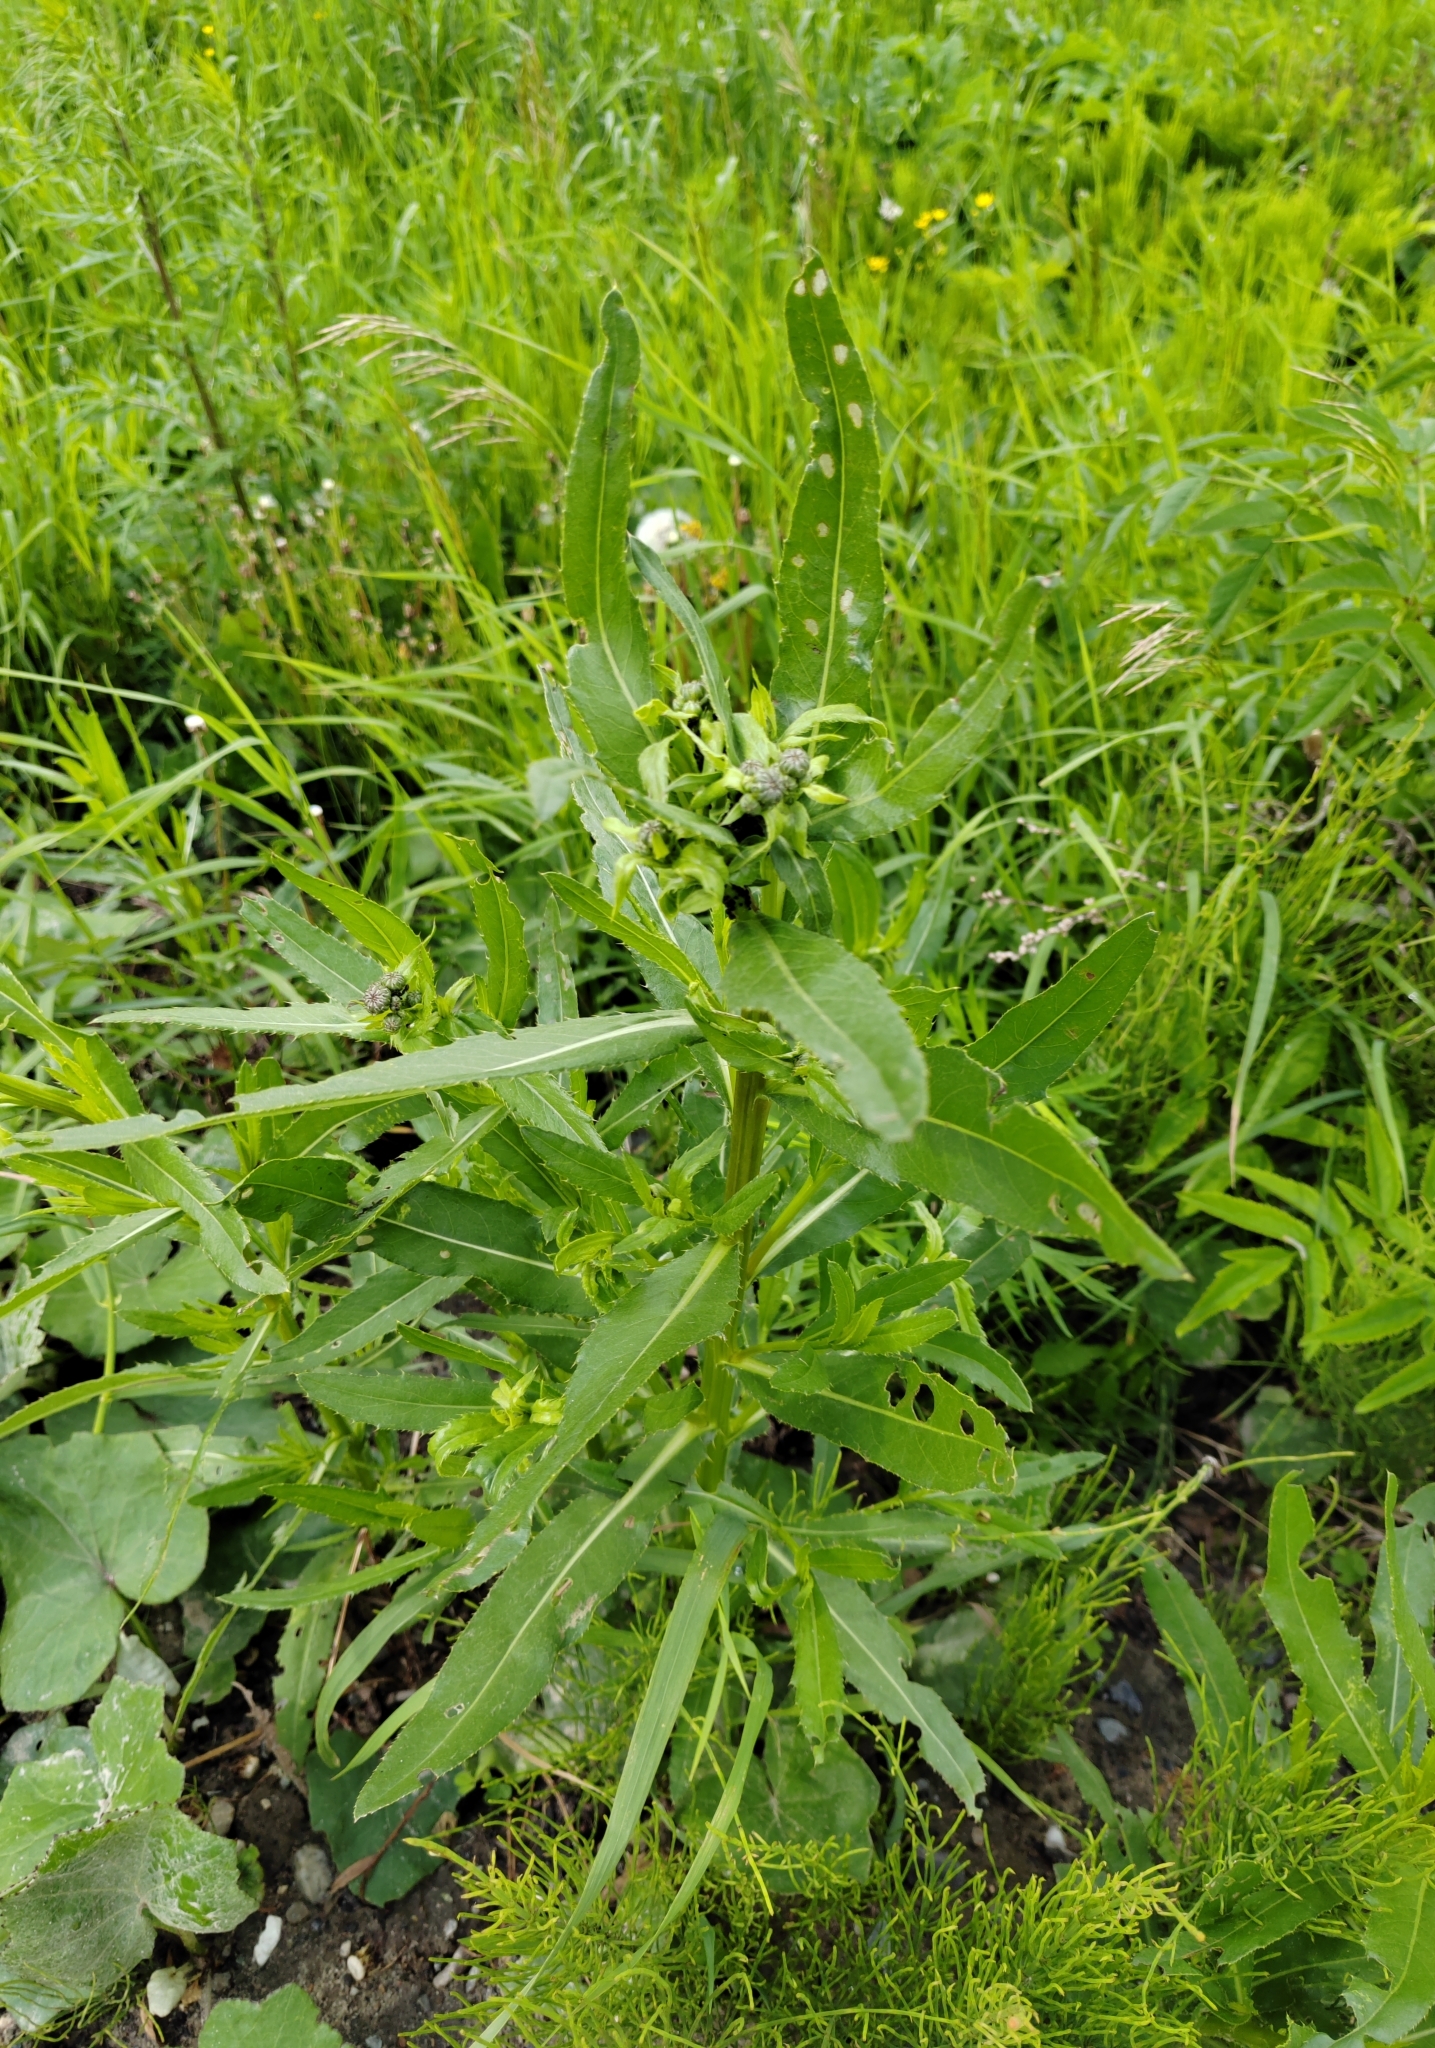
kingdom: Plantae
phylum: Tracheophyta
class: Magnoliopsida
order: Asterales
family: Asteraceae
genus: Cirsium
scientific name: Cirsium arvense
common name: Creeping thistle
